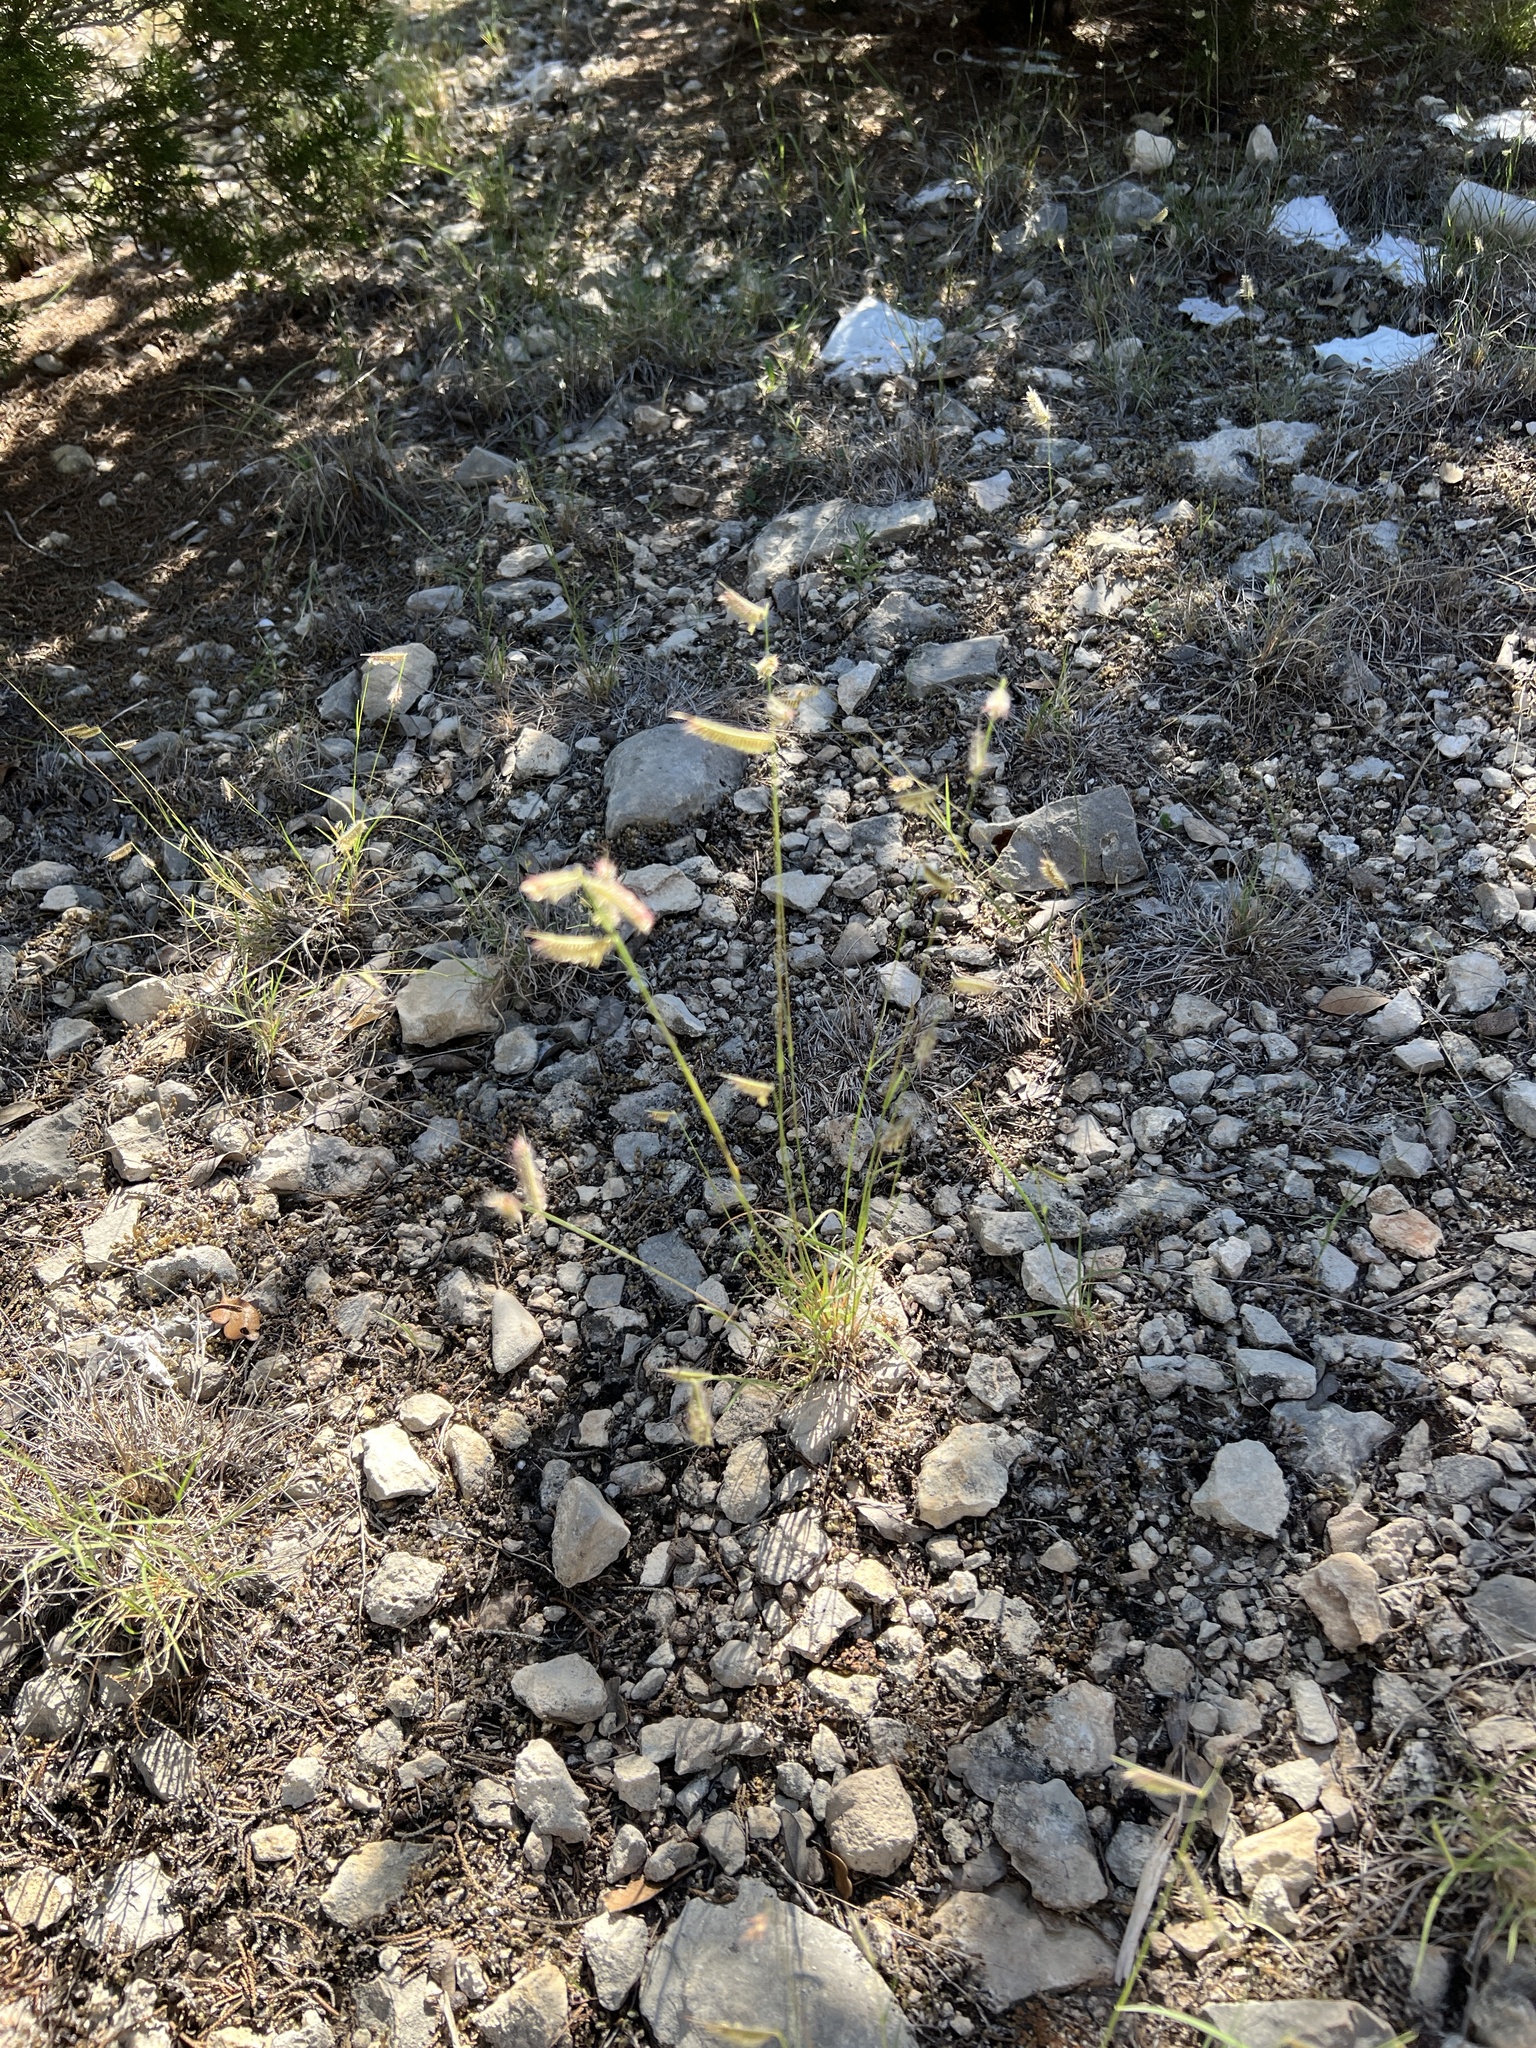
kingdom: Plantae
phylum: Tracheophyta
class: Liliopsida
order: Poales
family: Poaceae
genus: Bouteloua
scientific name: Bouteloua hirsuta
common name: Hairy grama
